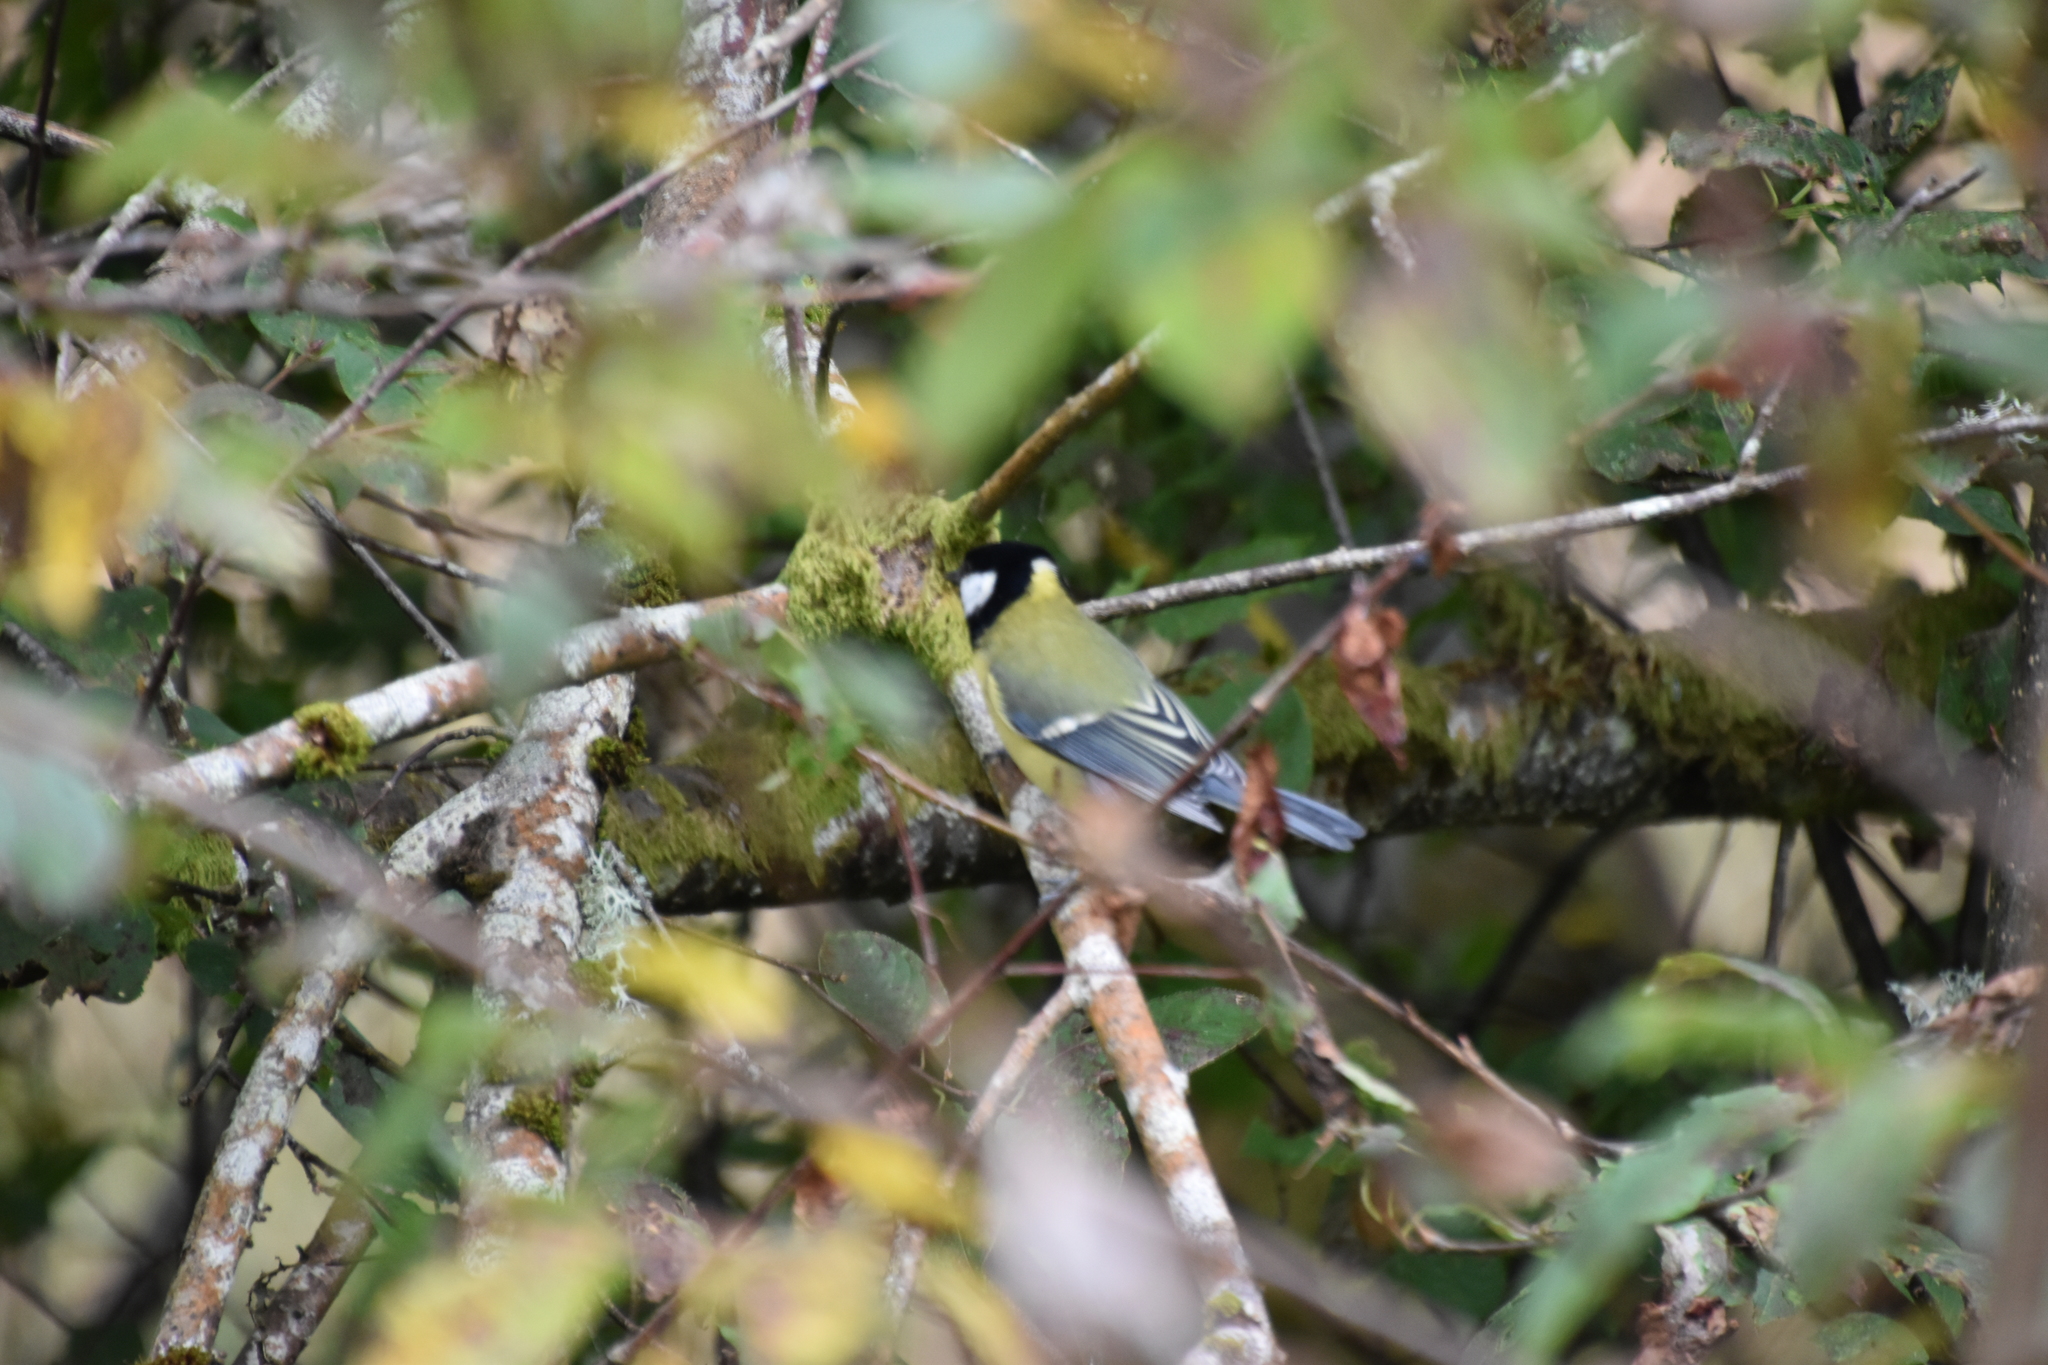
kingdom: Animalia
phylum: Chordata
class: Aves
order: Passeriformes
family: Paridae
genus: Parus
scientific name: Parus major
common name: Great tit
